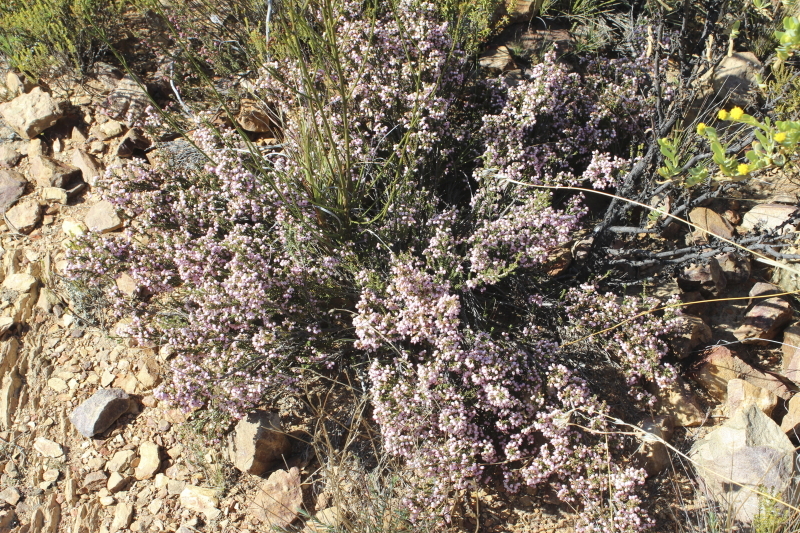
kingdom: Plantae
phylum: Tracheophyta
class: Magnoliopsida
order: Ericales
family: Ericaceae
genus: Erica
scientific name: Erica umbelliflora
